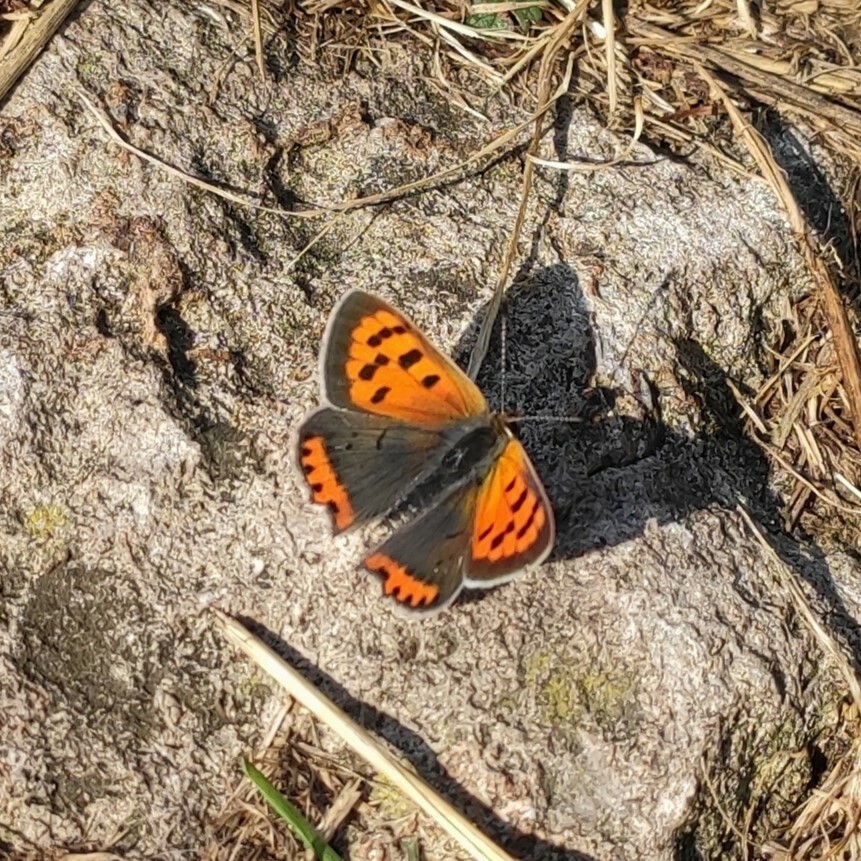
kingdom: Animalia
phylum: Arthropoda
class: Insecta
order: Lepidoptera
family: Lycaenidae
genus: Lycaena
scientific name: Lycaena phlaeas
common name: Small copper
